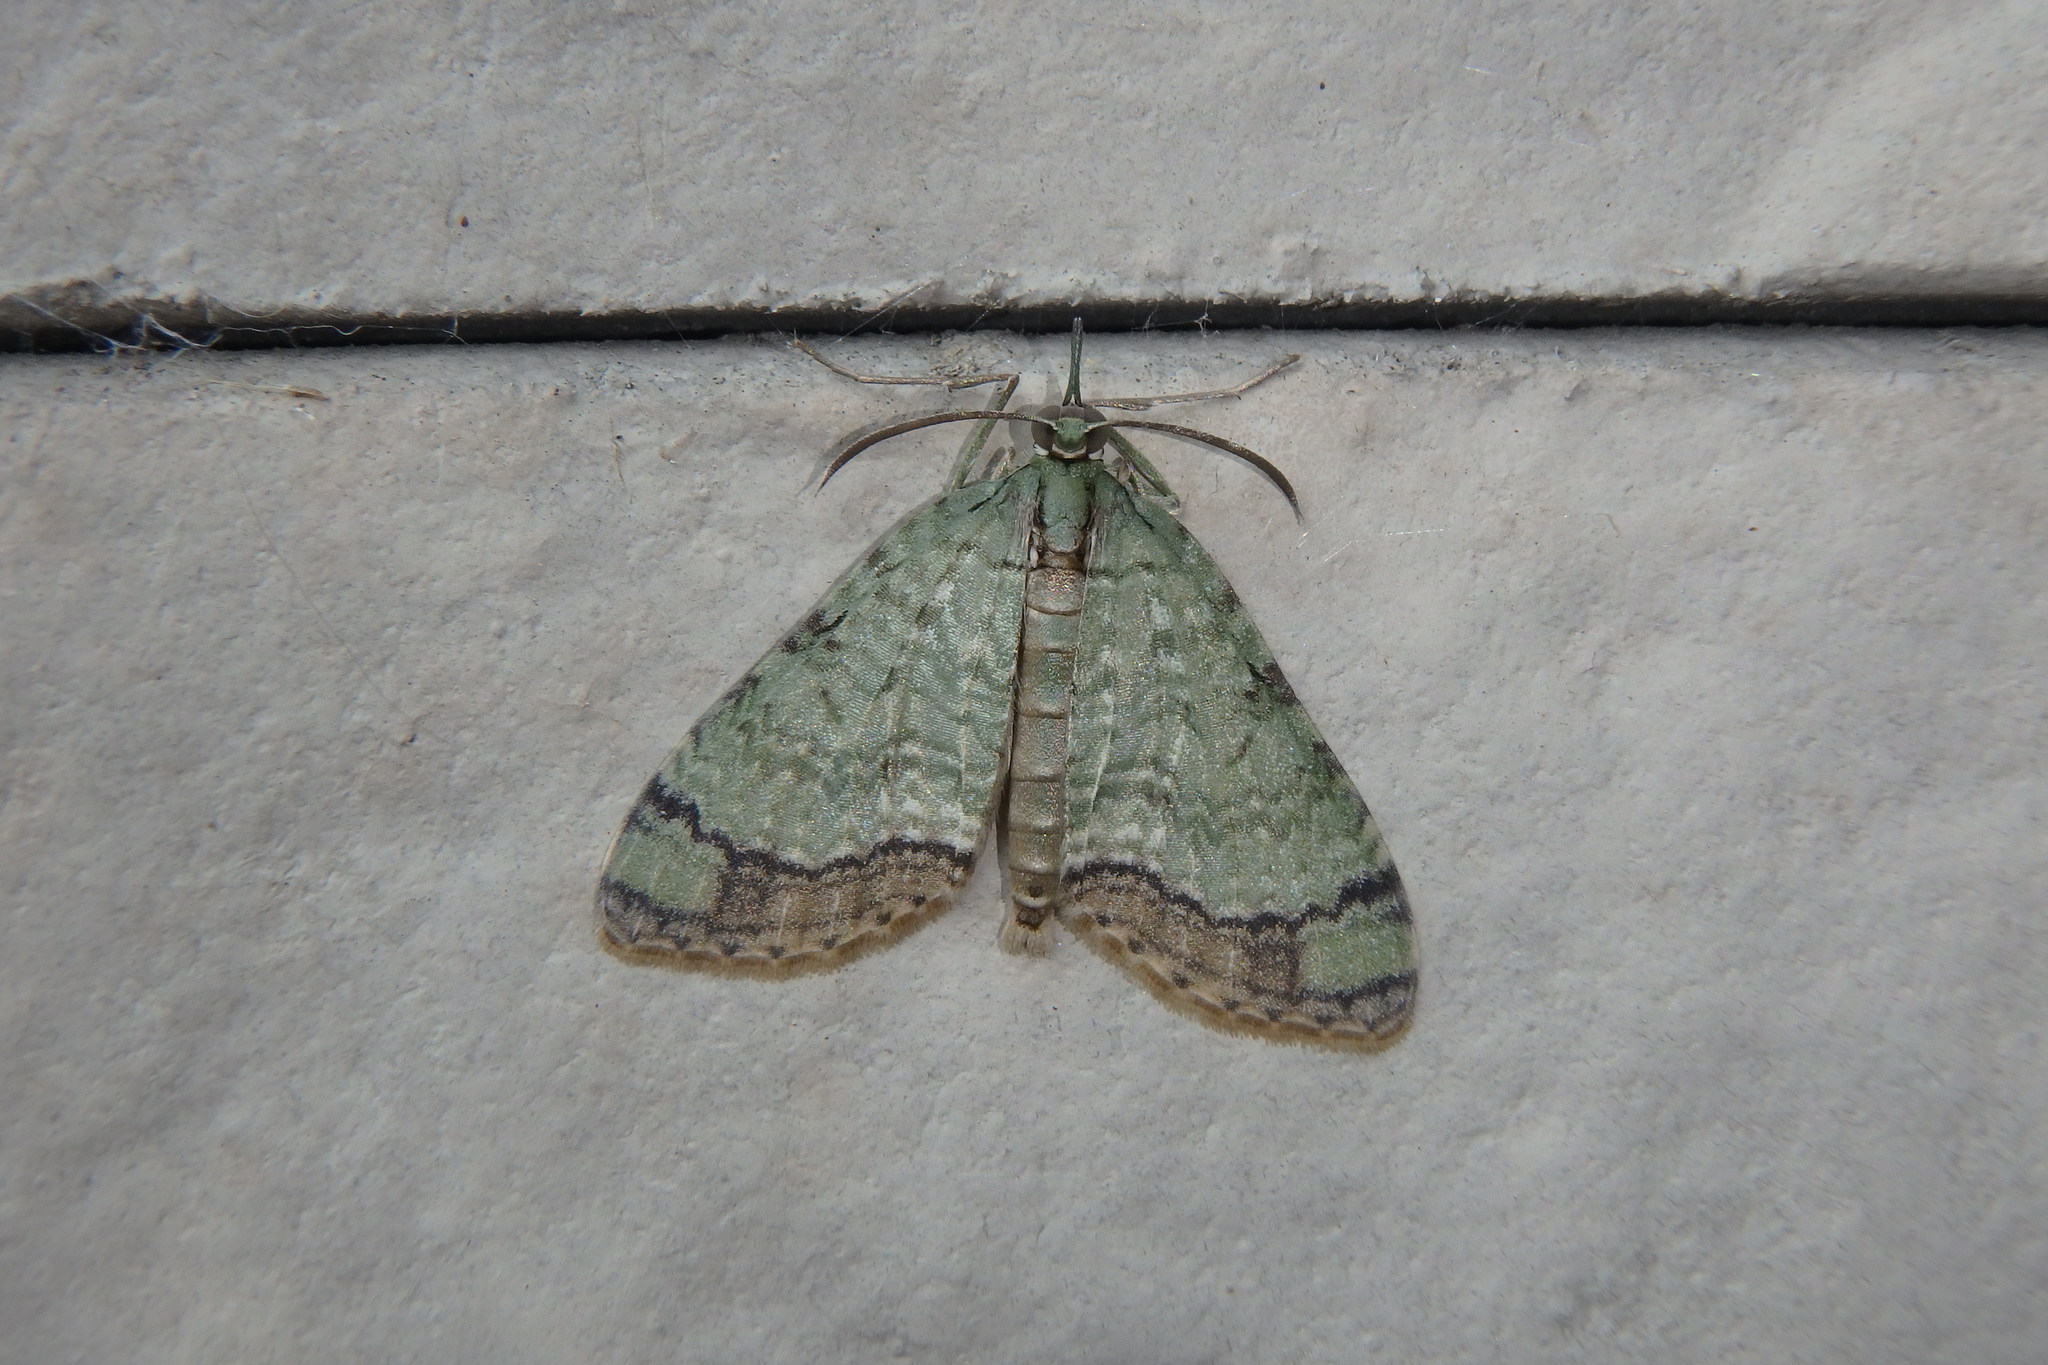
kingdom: Animalia
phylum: Arthropoda
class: Insecta
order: Lepidoptera
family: Geometridae
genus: Episteira
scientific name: Episteira nigrilinearia
